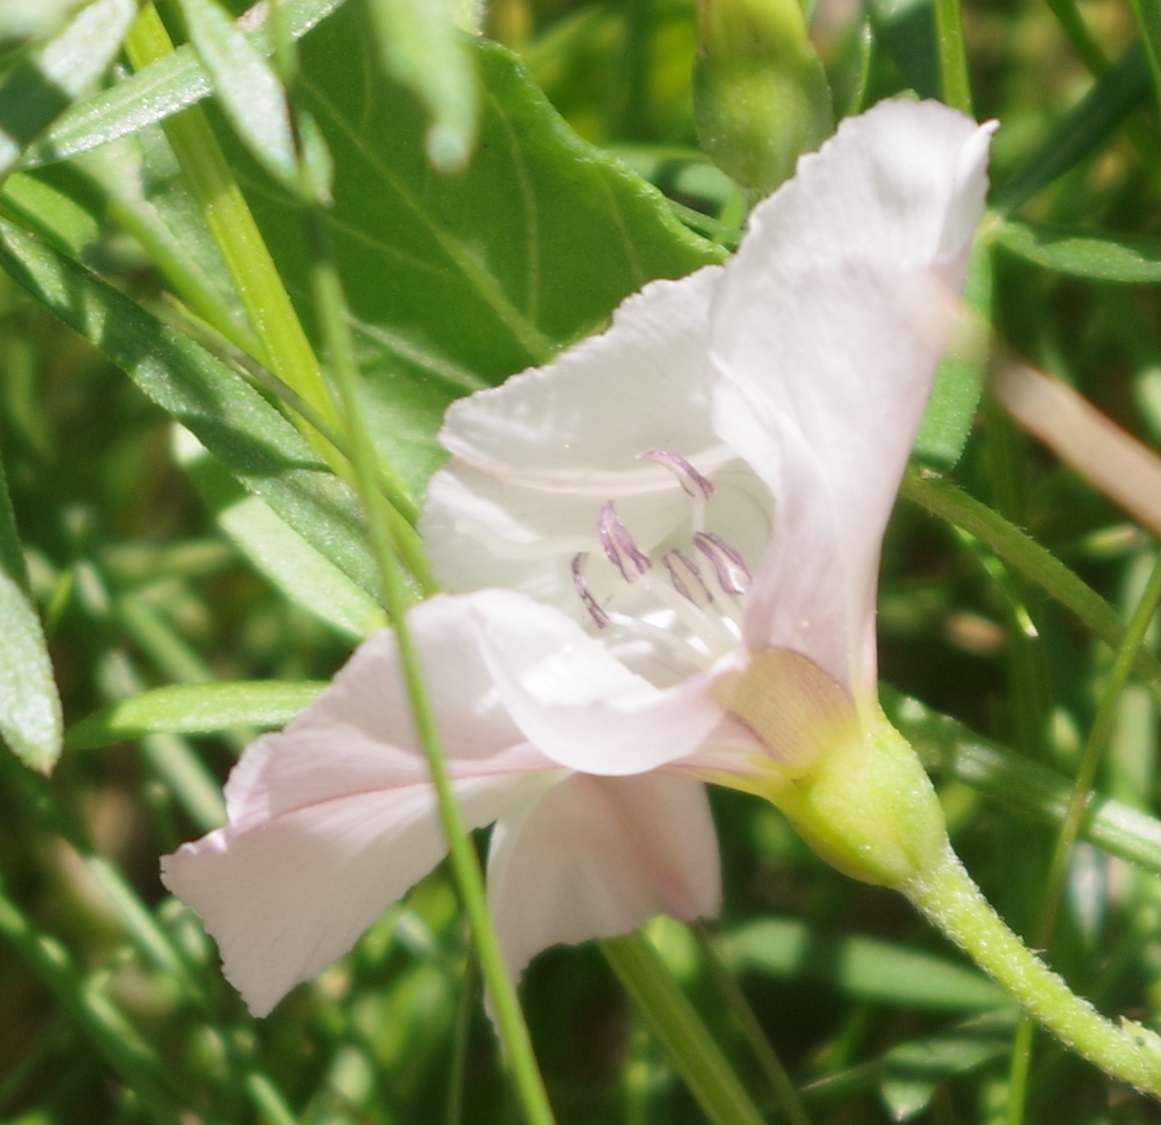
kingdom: Plantae
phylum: Tracheophyta
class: Magnoliopsida
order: Solanales
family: Convolvulaceae
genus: Convolvulus
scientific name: Convolvulus arvensis
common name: Field bindweed
